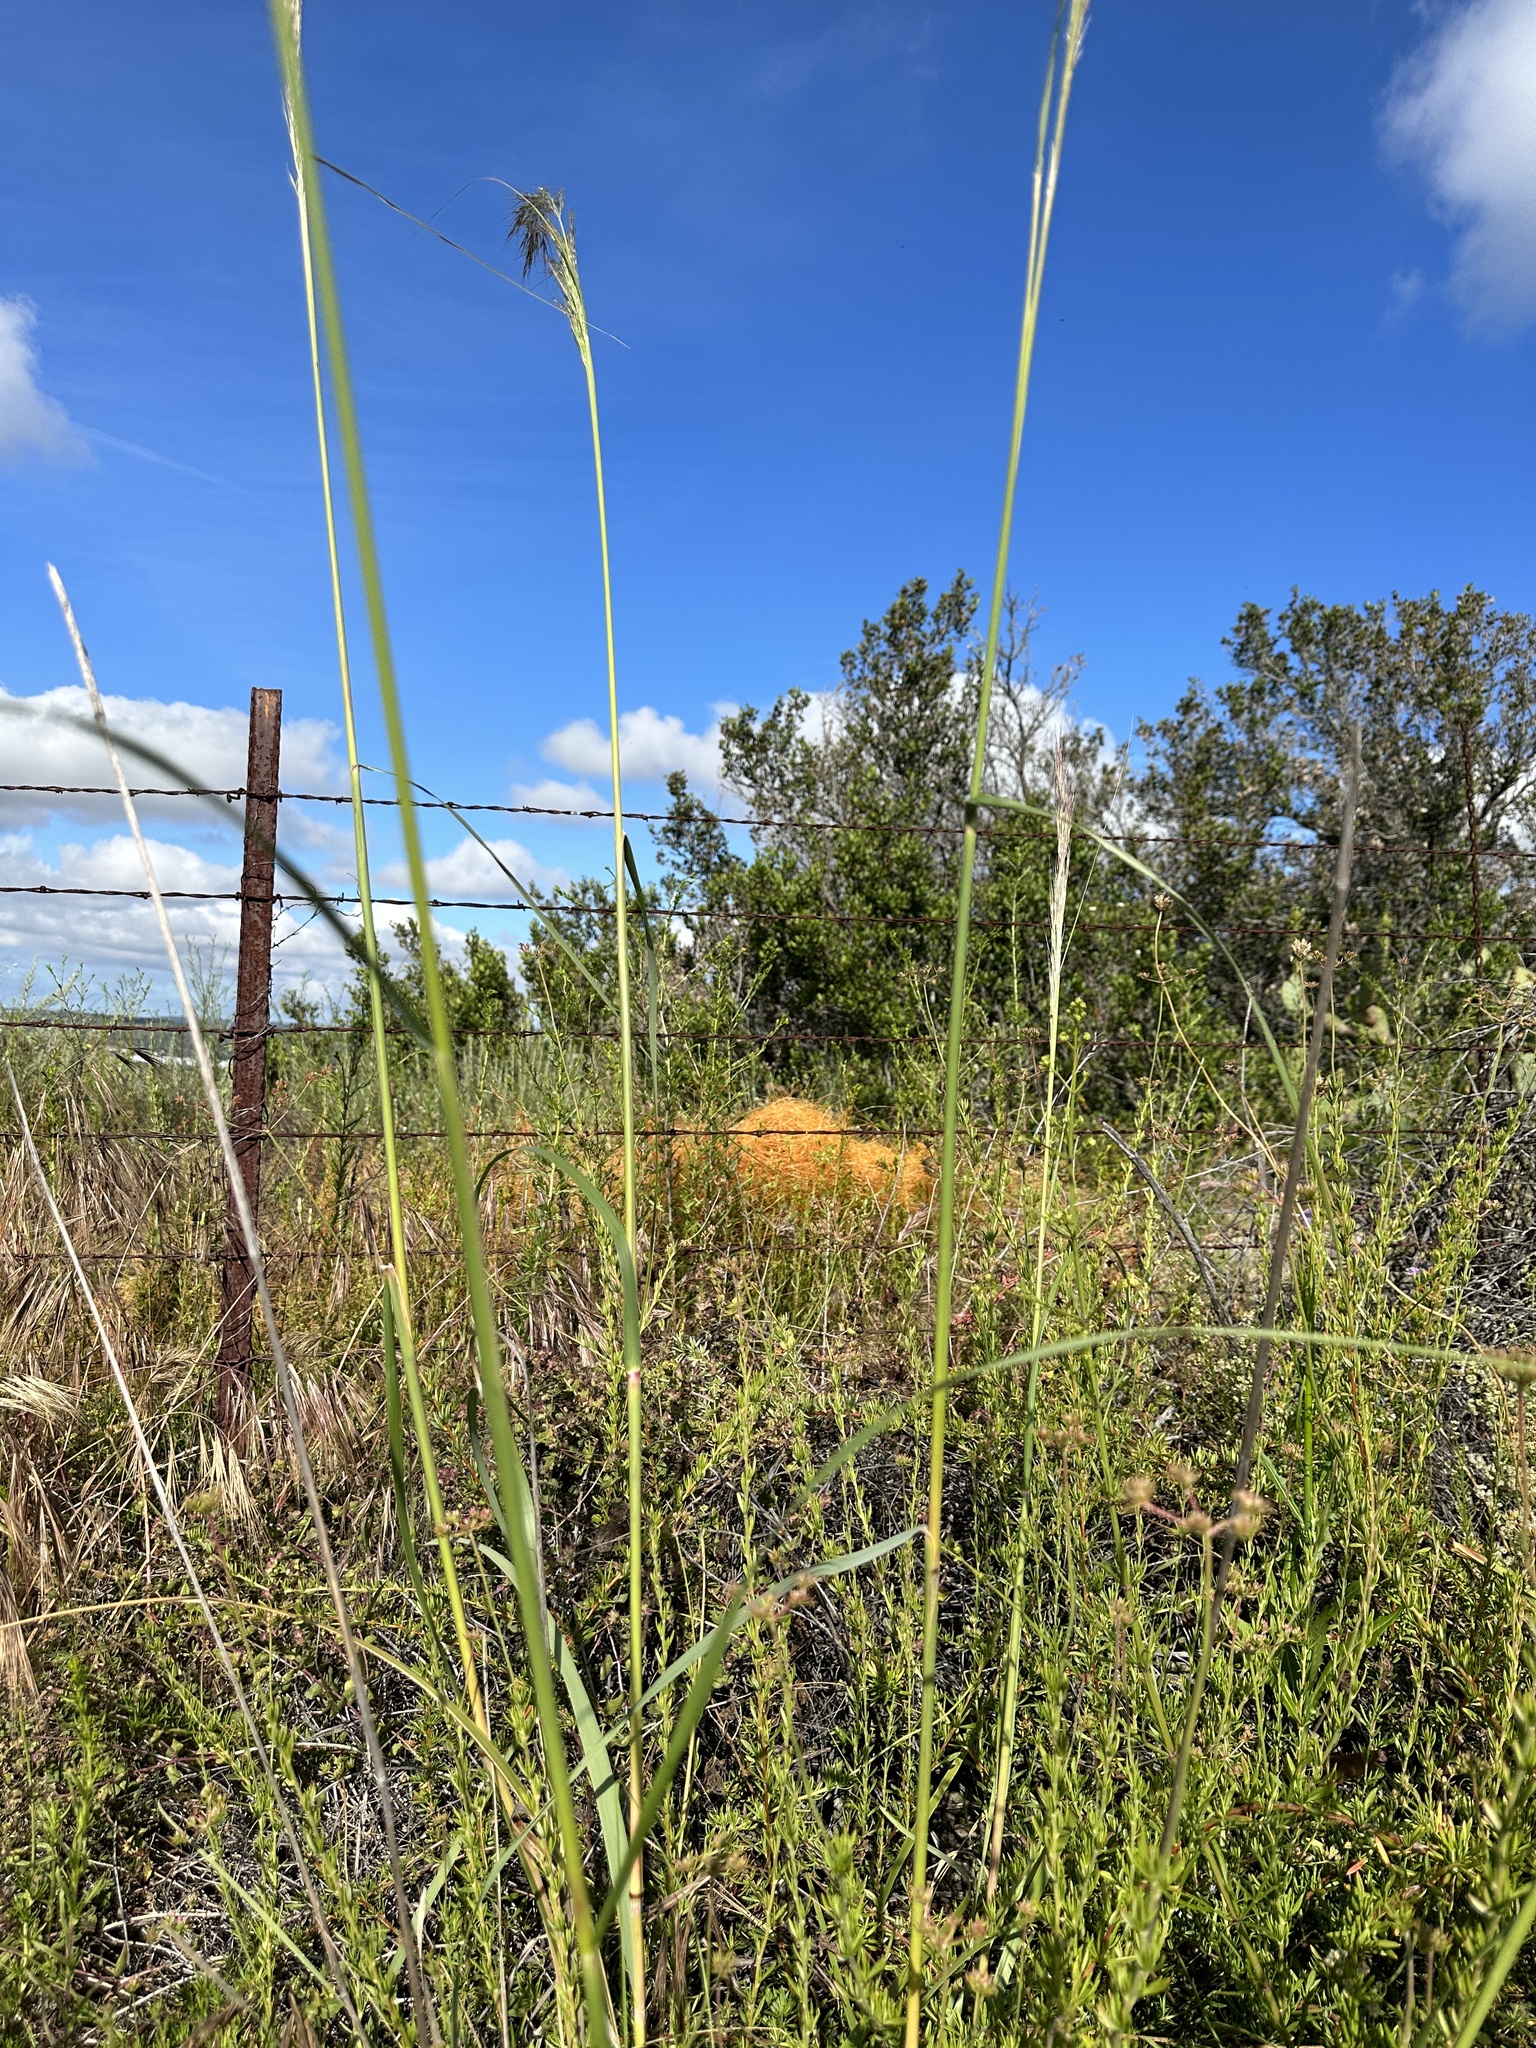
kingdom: Plantae
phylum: Tracheophyta
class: Liliopsida
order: Poales
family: Poaceae
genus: Eriocoma
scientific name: Eriocoma coronata
